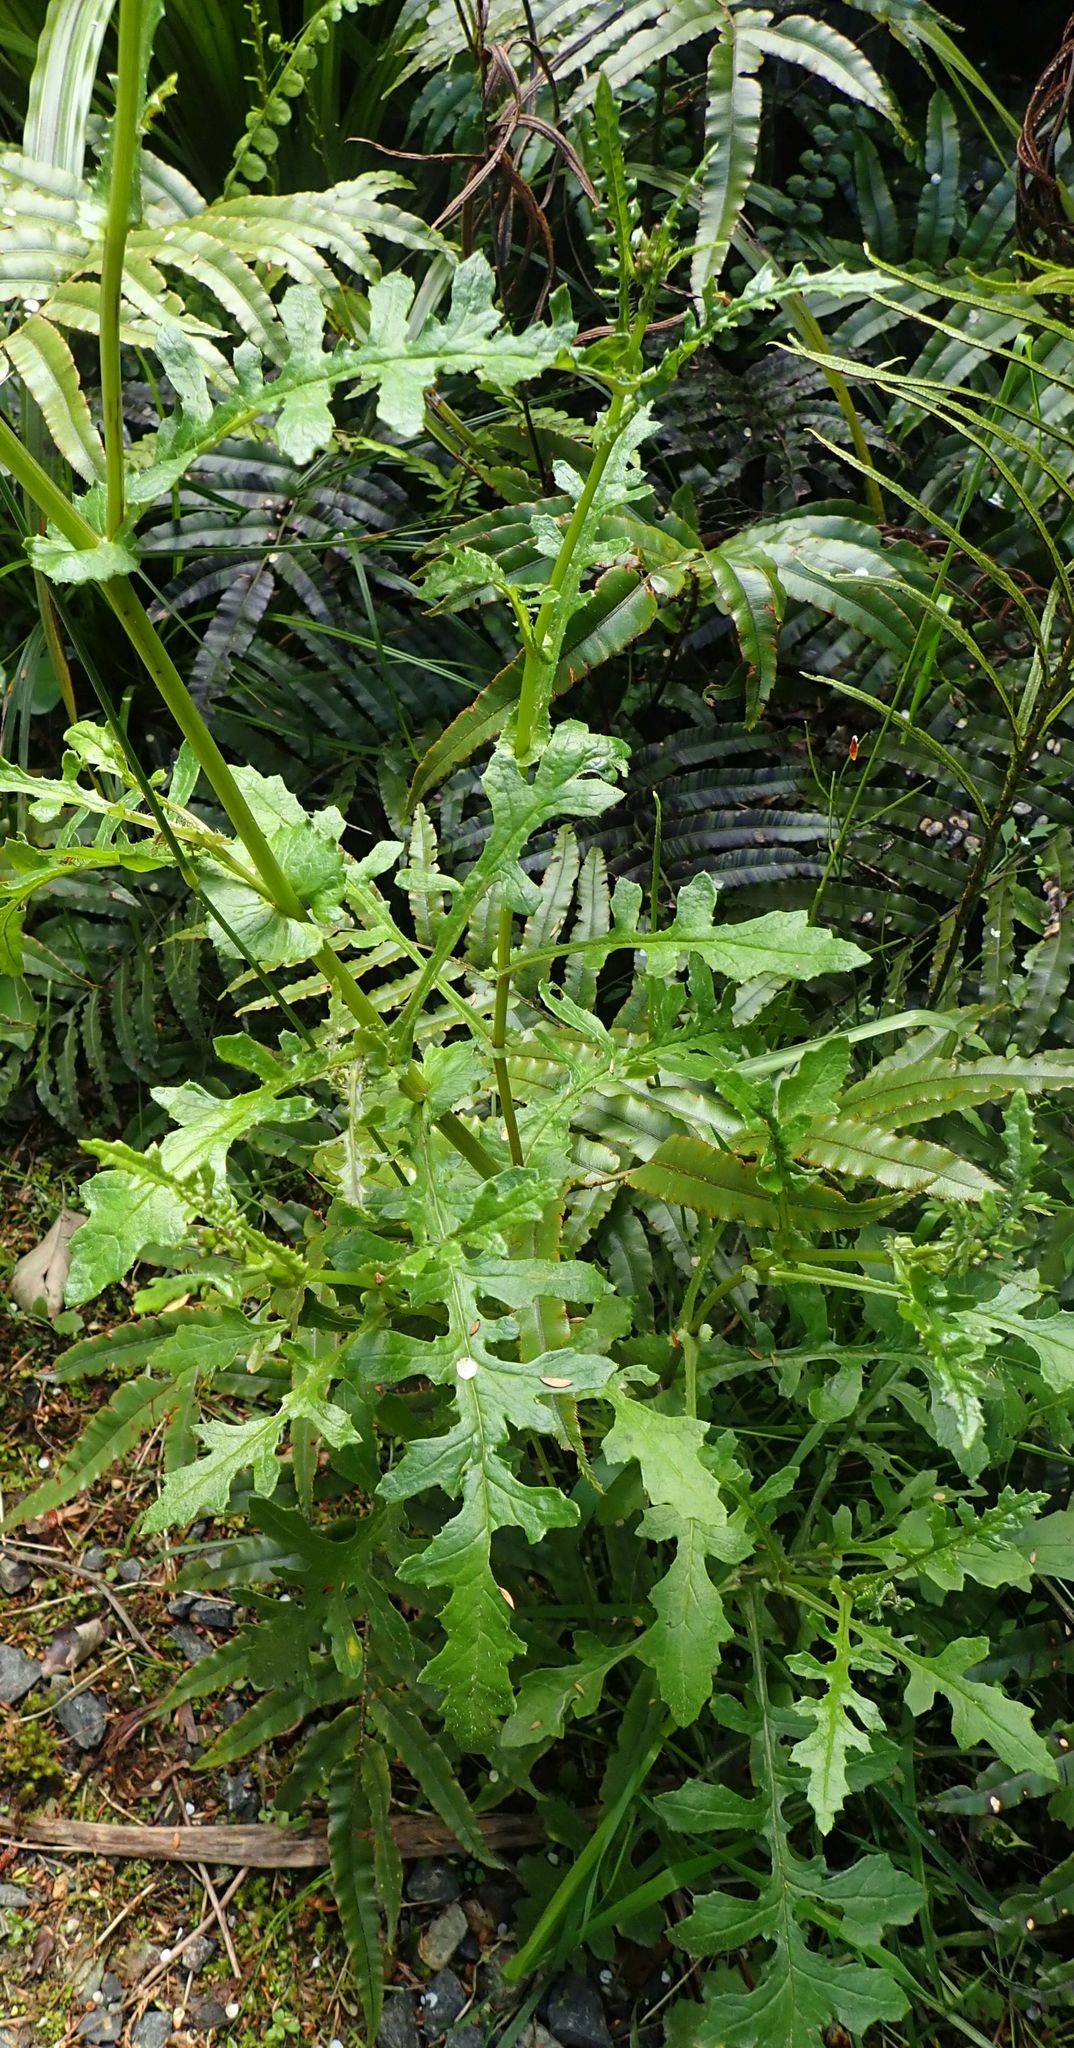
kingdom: Plantae
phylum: Tracheophyta
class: Magnoliopsida
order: Asterales
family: Asteraceae
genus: Senecio
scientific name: Senecio wairauensis
